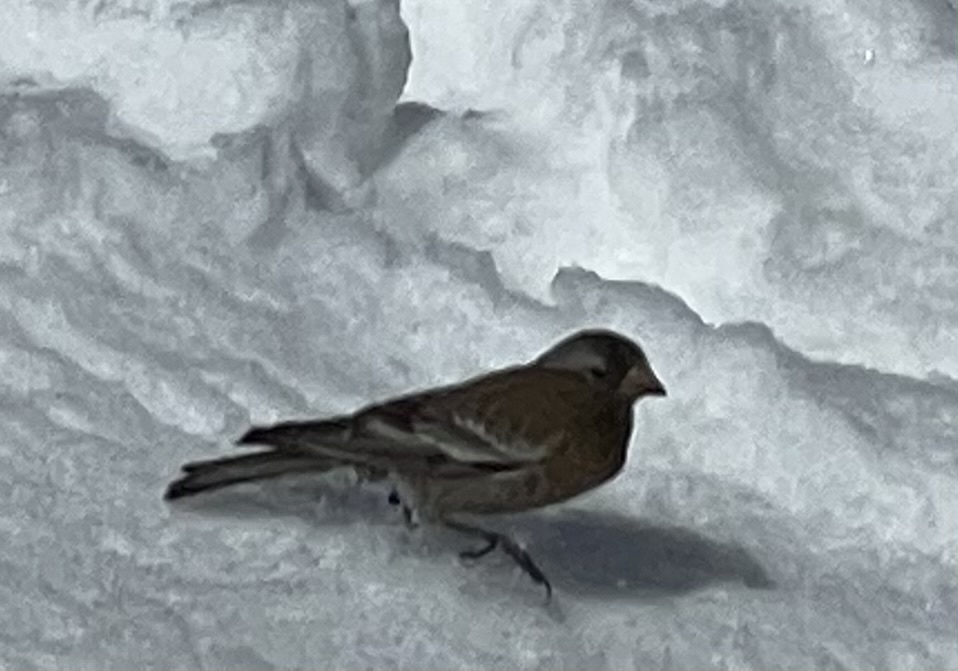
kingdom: Animalia
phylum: Chordata
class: Aves
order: Passeriformes
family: Fringillidae
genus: Leucosticte
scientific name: Leucosticte tephrocotis
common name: Gray-crowned rosy-finch
